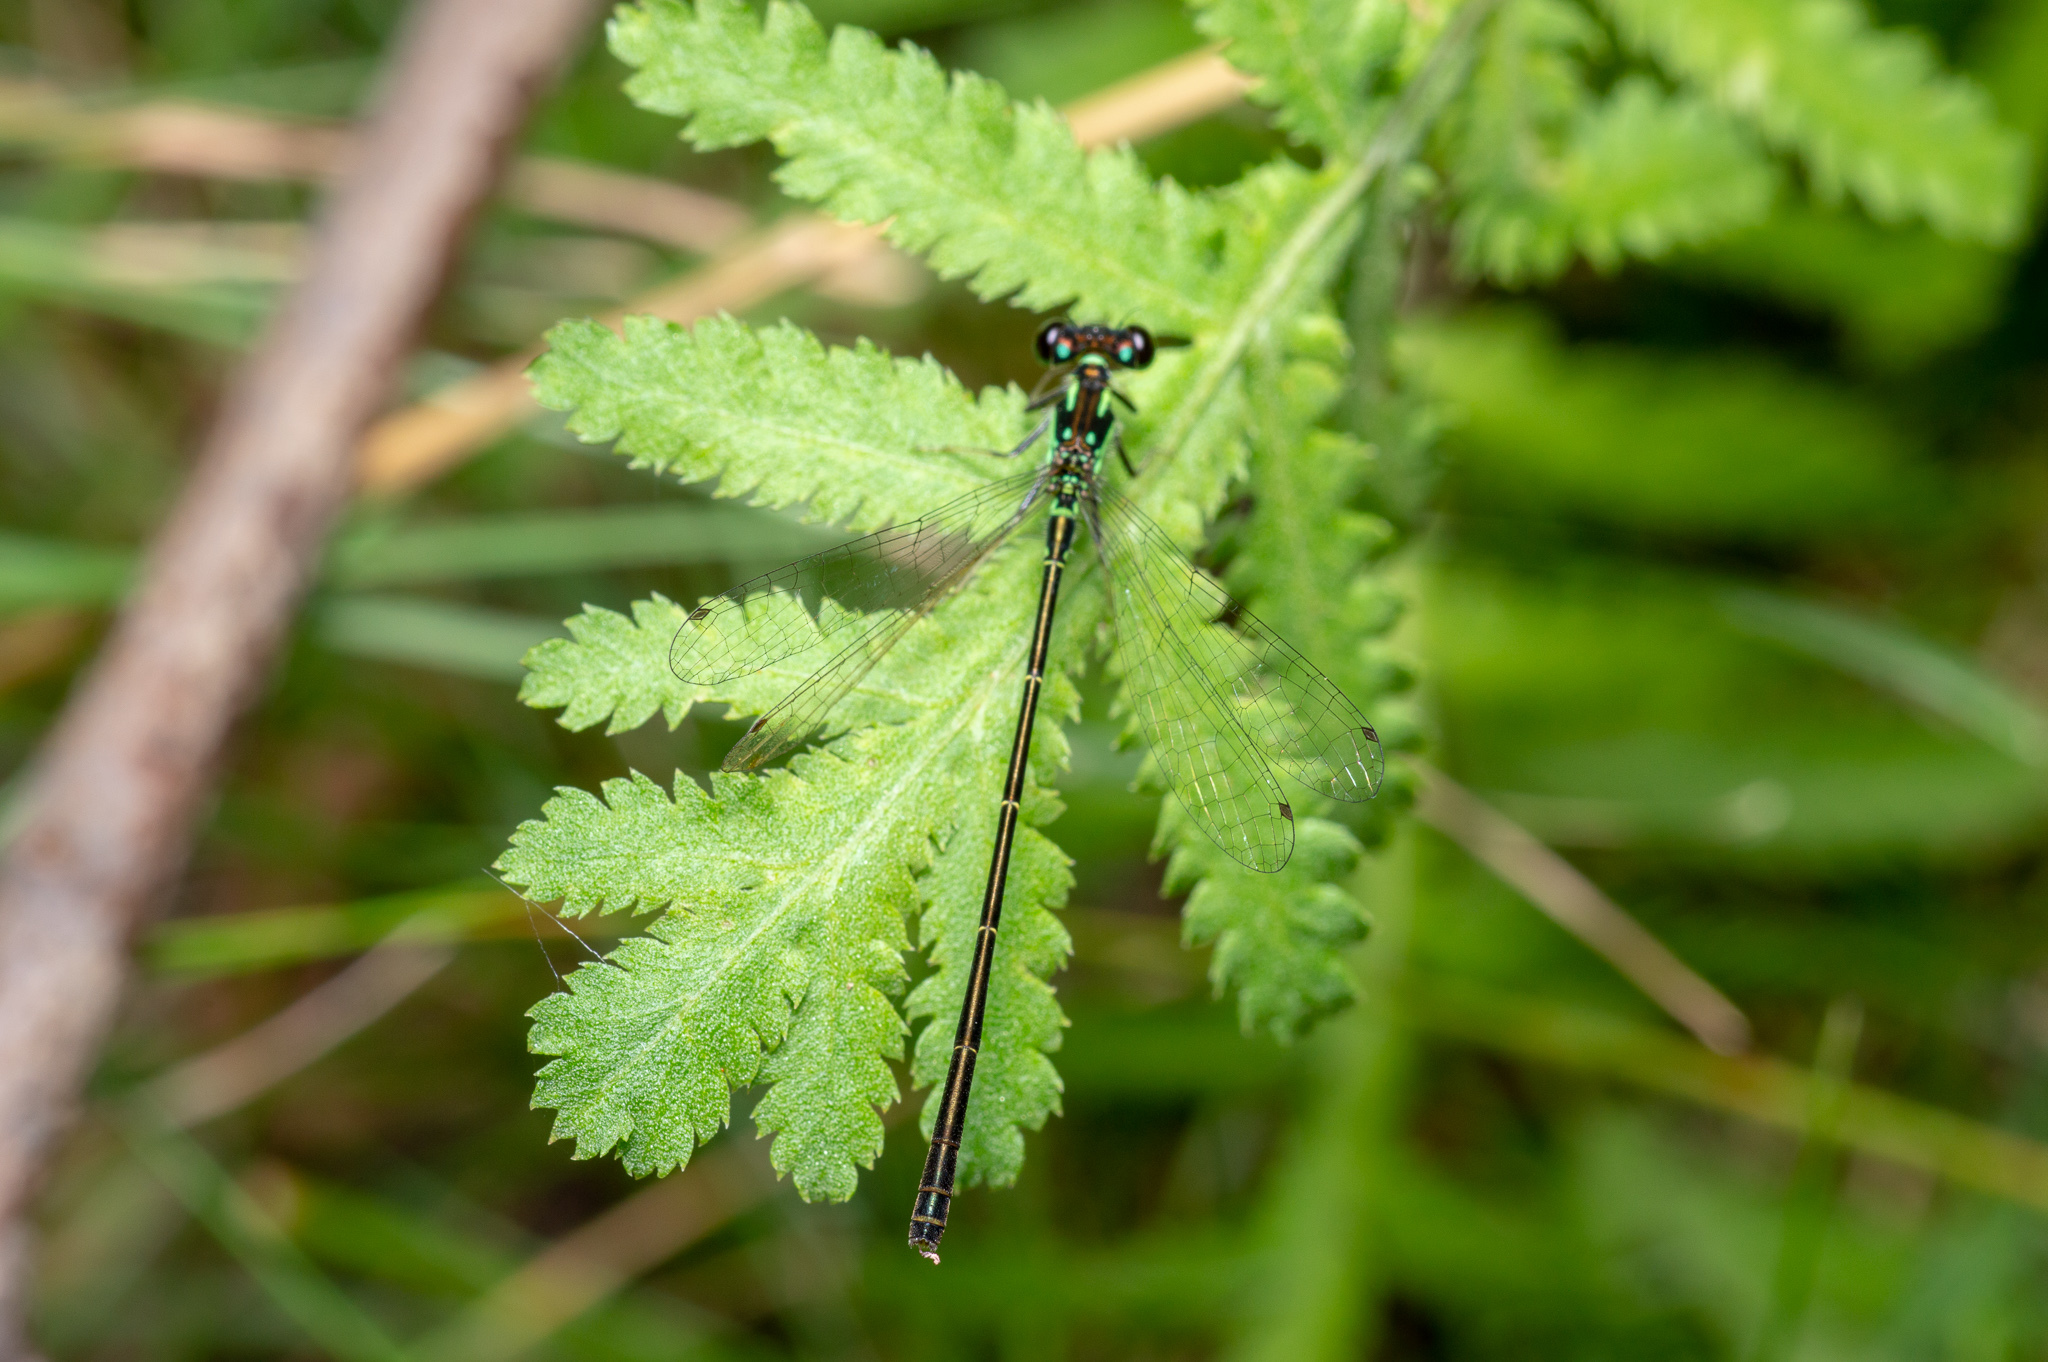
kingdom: Animalia
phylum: Arthropoda
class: Insecta
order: Odonata
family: Coenagrionidae
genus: Ischnura
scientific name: Ischnura posita
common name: Fragile forktail
